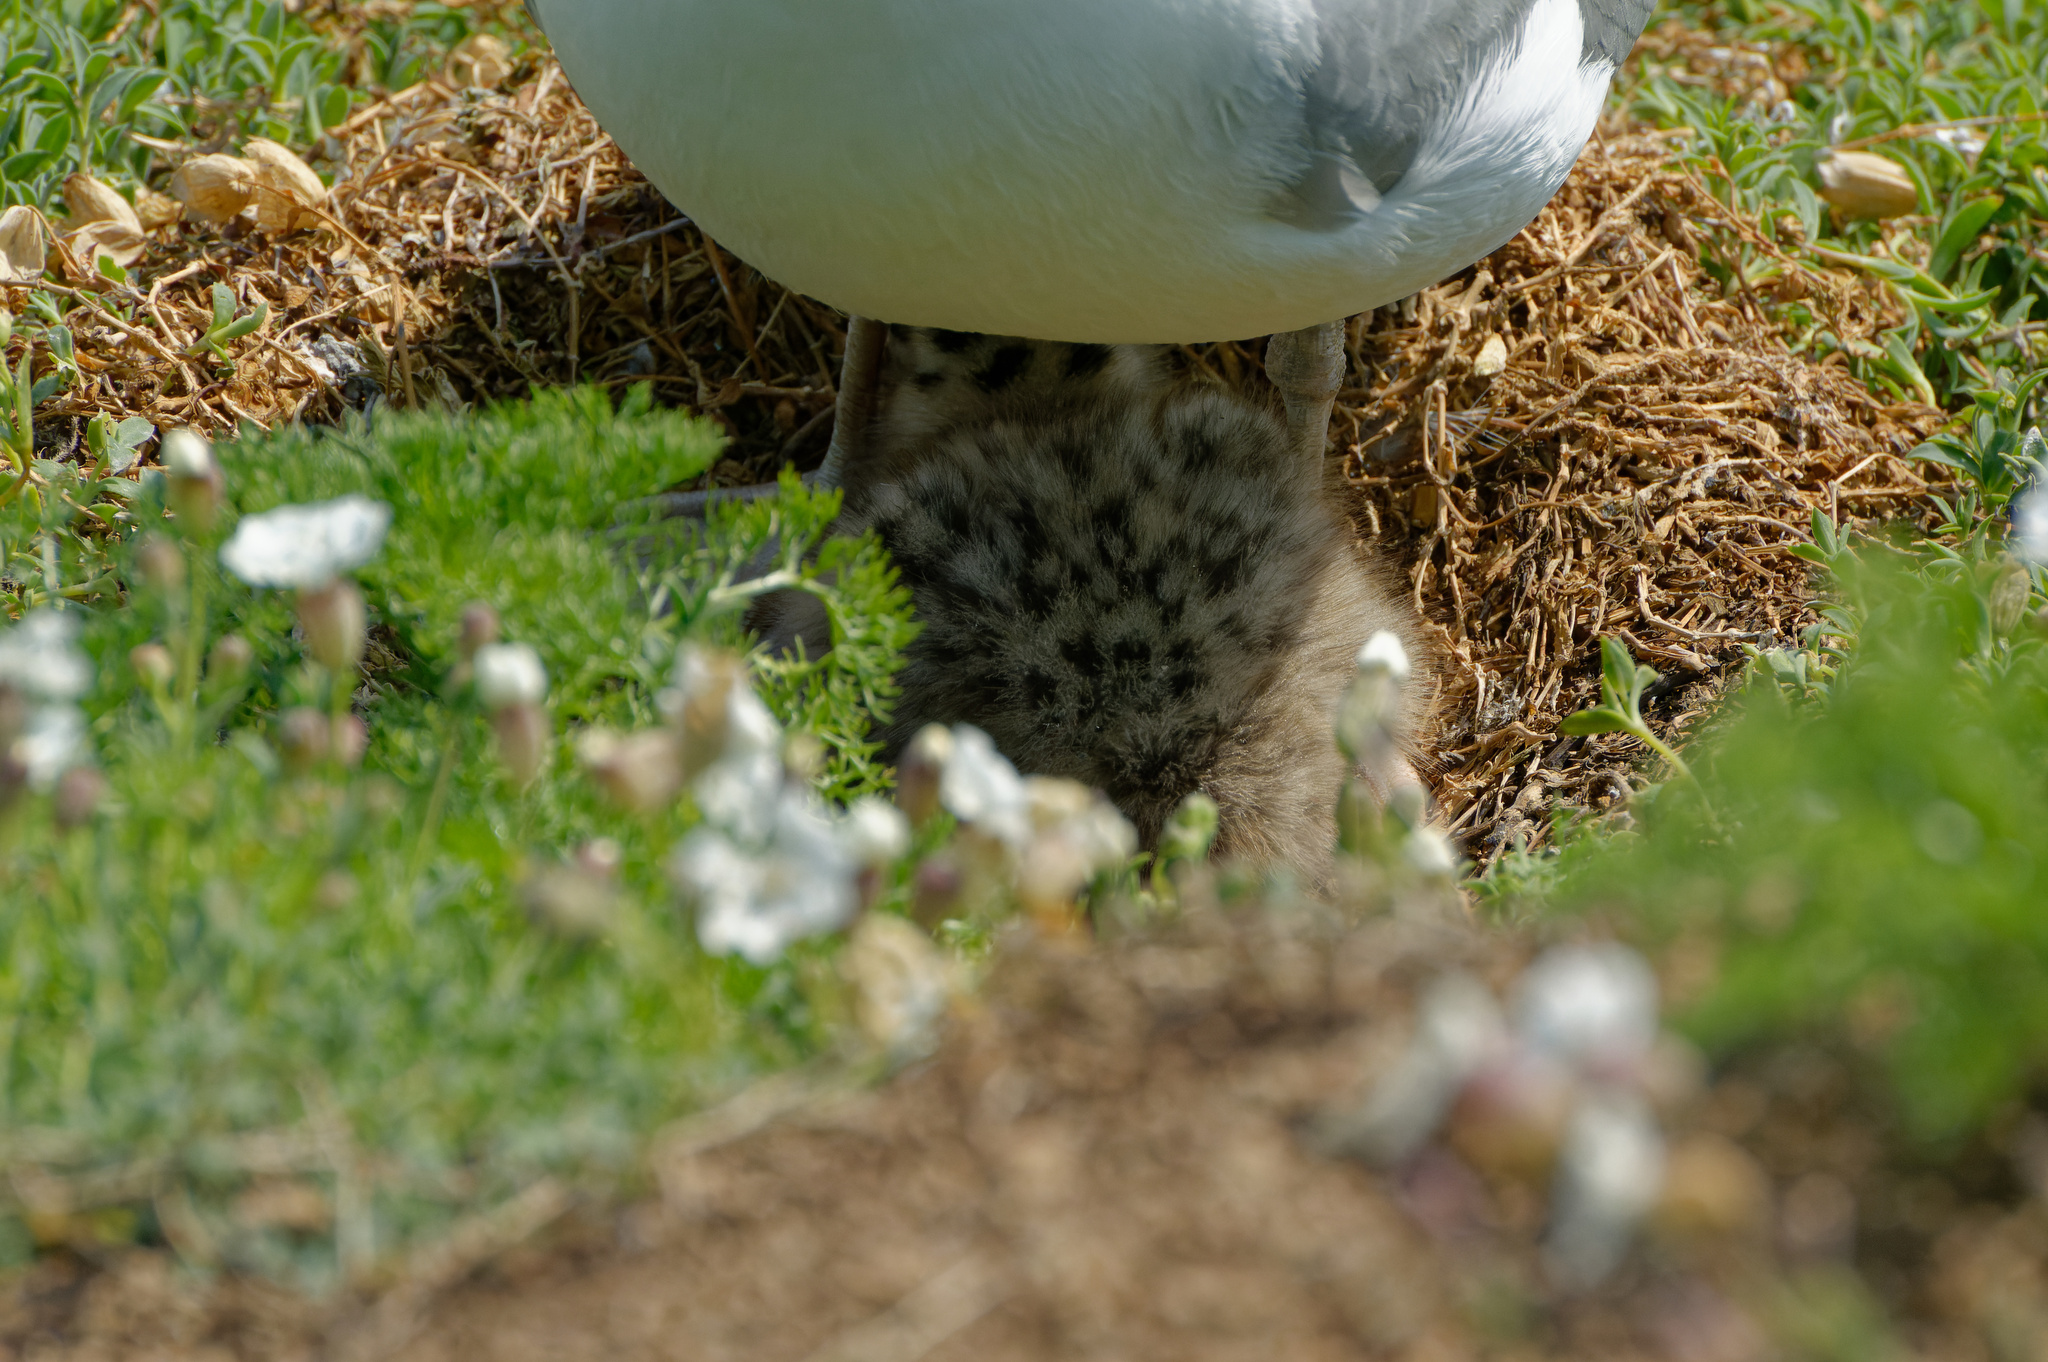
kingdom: Animalia
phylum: Chordata
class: Aves
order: Charadriiformes
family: Laridae
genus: Larus
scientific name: Larus argentatus
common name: Herring gull
